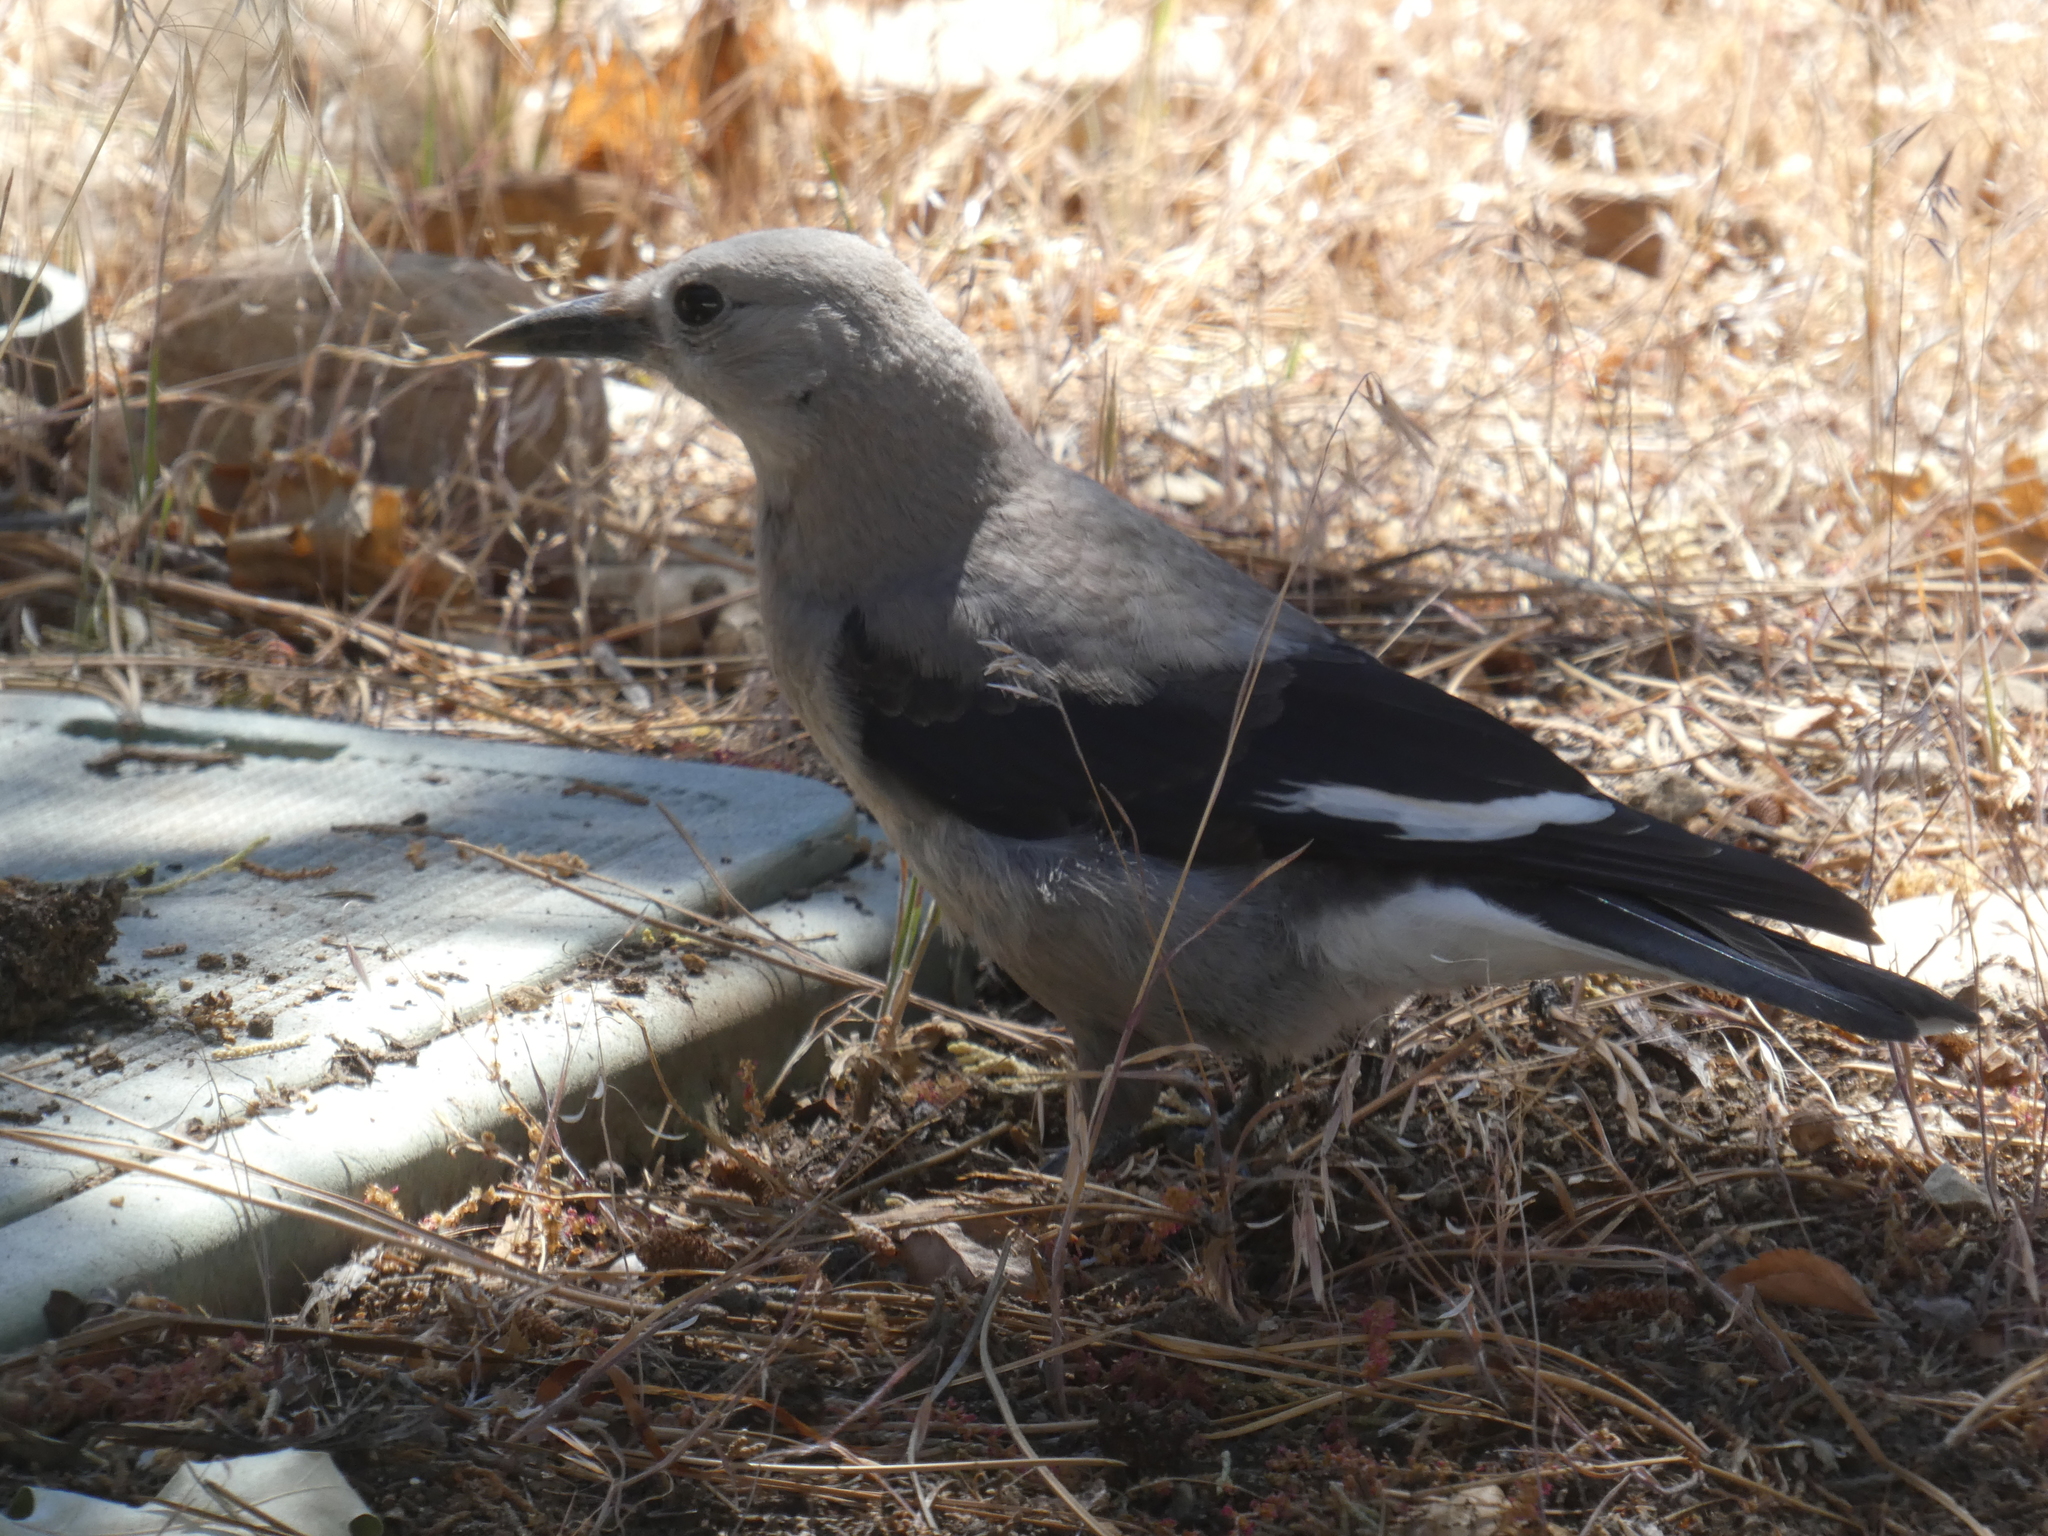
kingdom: Animalia
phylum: Chordata
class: Aves
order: Passeriformes
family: Corvidae
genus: Nucifraga
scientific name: Nucifraga columbiana
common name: Clark's nutcracker
